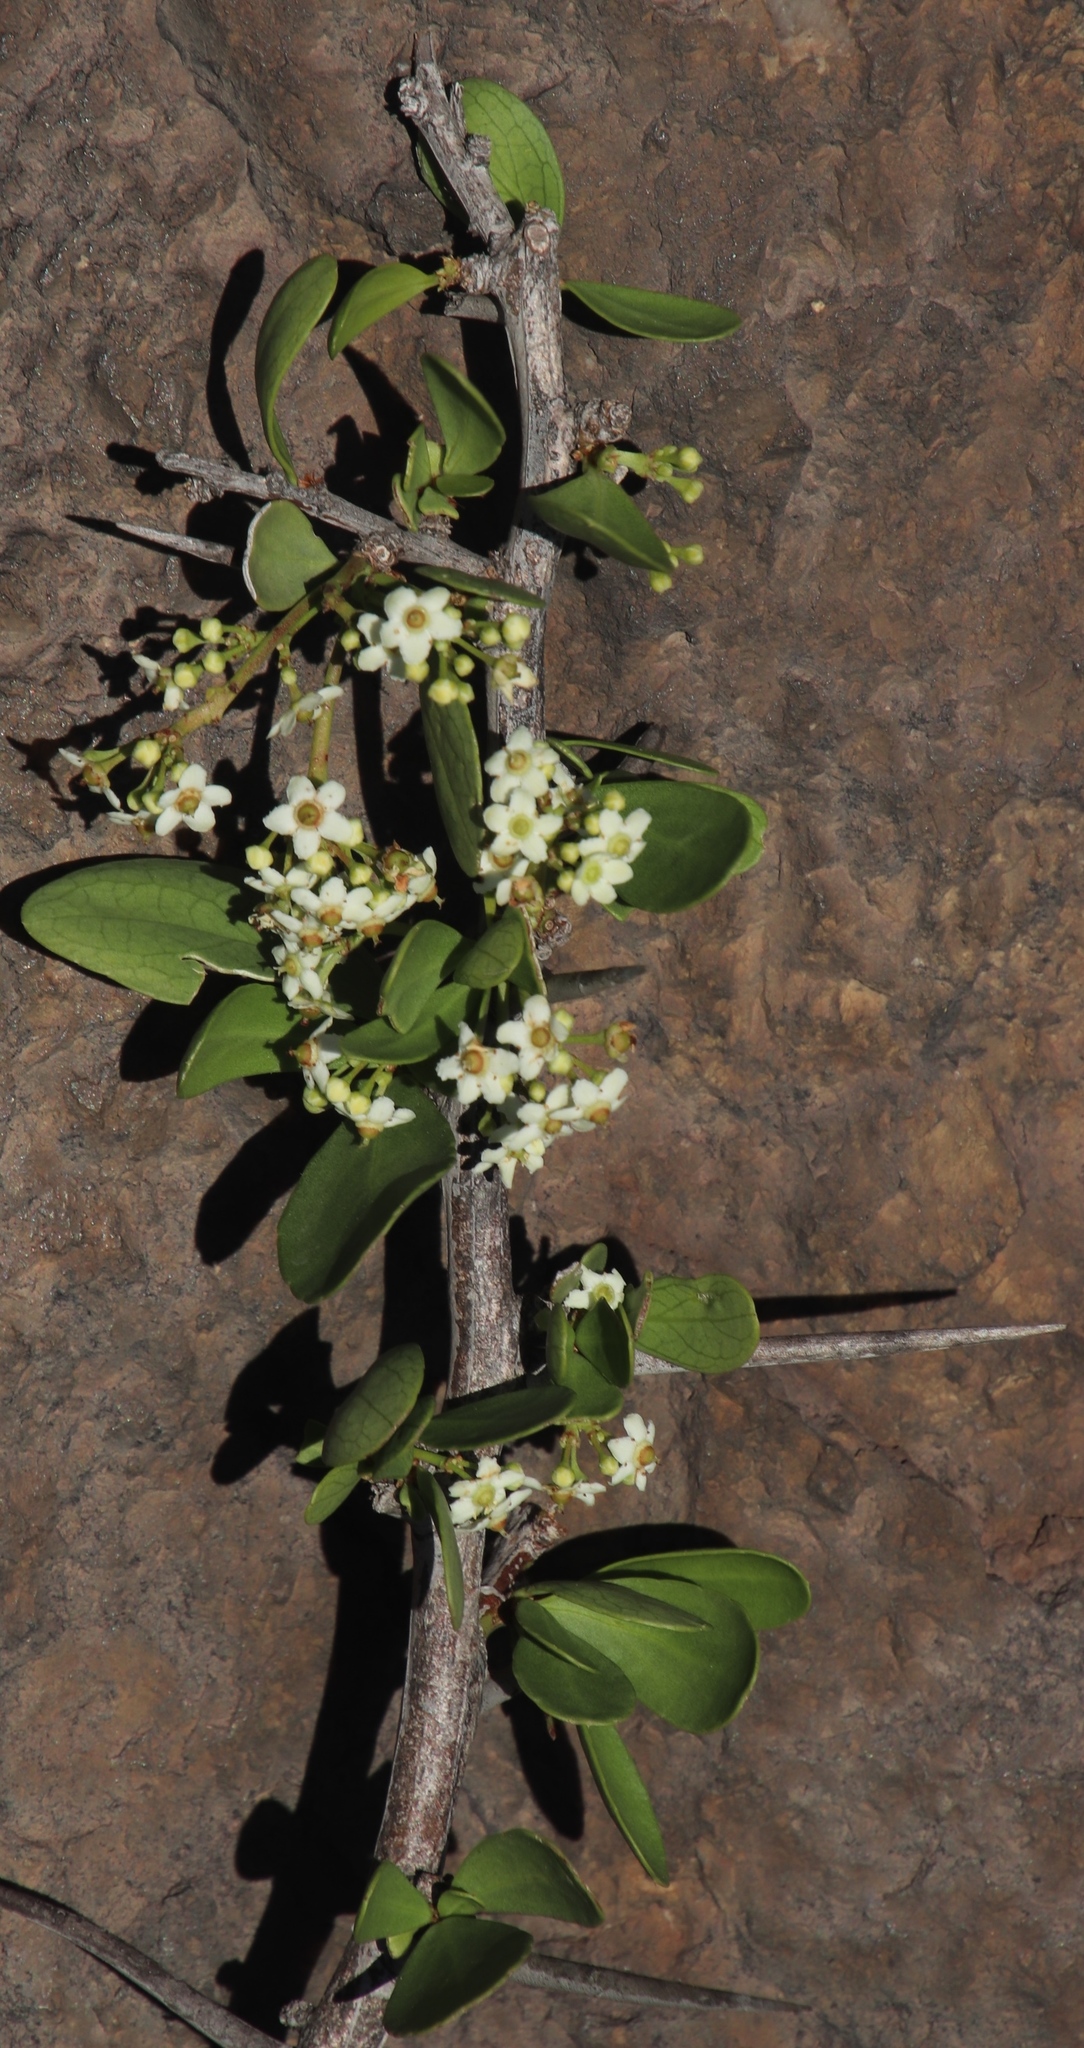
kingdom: Plantae
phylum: Tracheophyta
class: Magnoliopsida
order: Celastrales
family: Celastraceae
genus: Gymnosporia
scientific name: Gymnosporia buxifolia
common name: Common spike-thorn
